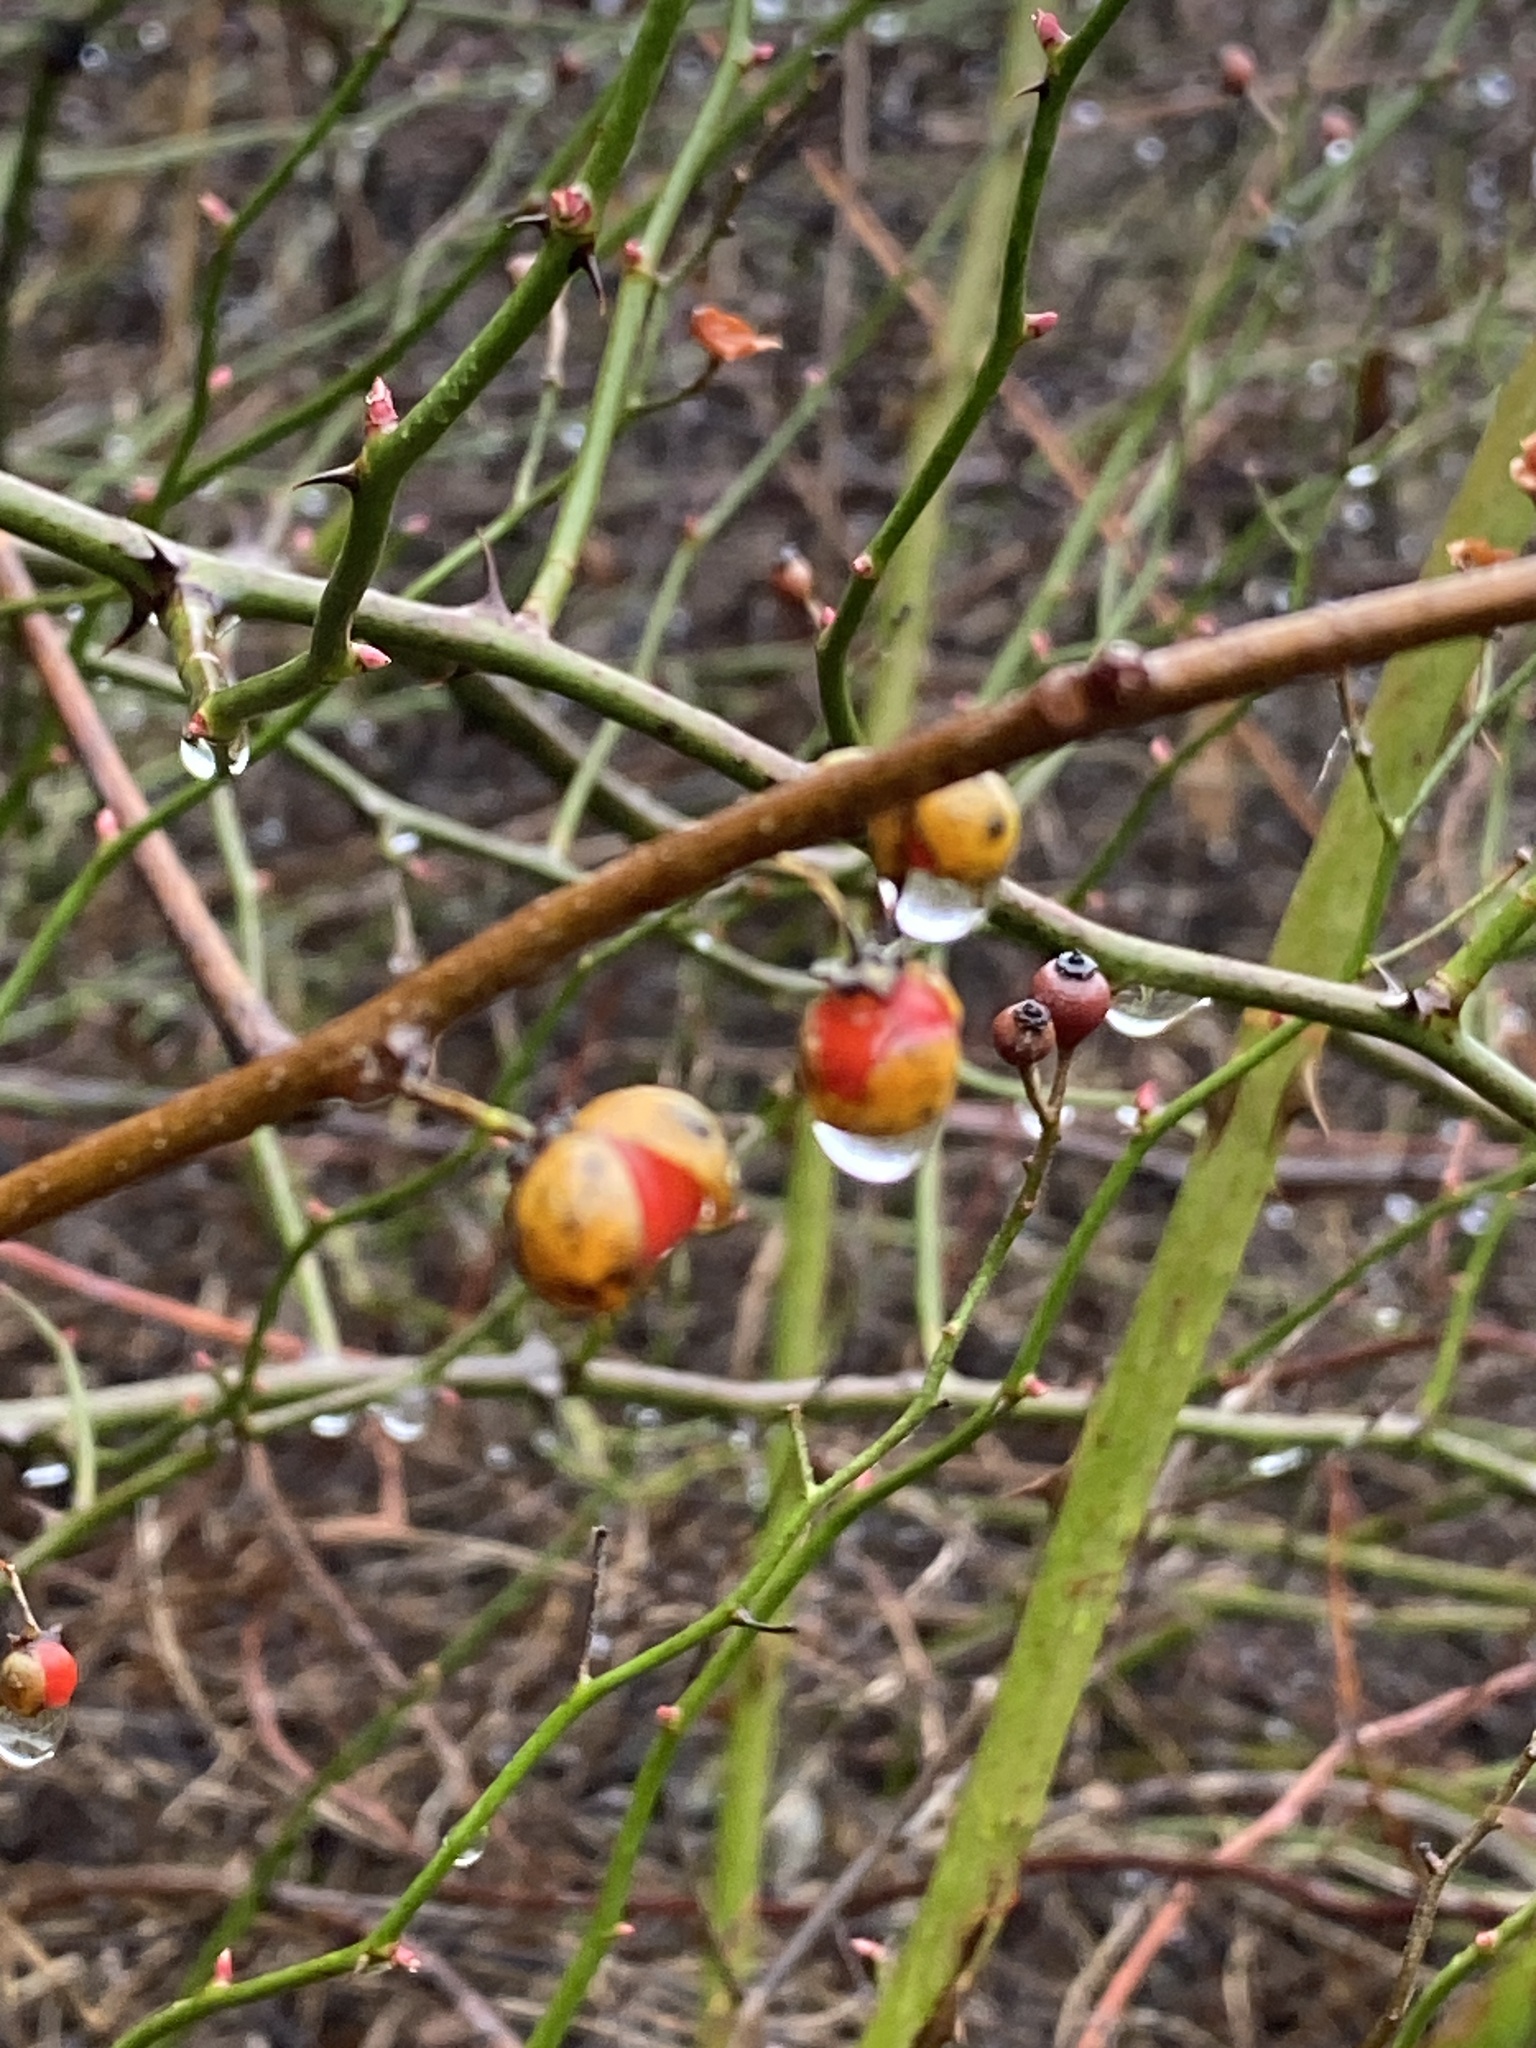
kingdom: Plantae
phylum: Tracheophyta
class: Magnoliopsida
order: Celastrales
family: Celastraceae
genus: Celastrus
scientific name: Celastrus orbiculatus
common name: Oriental bittersweet
